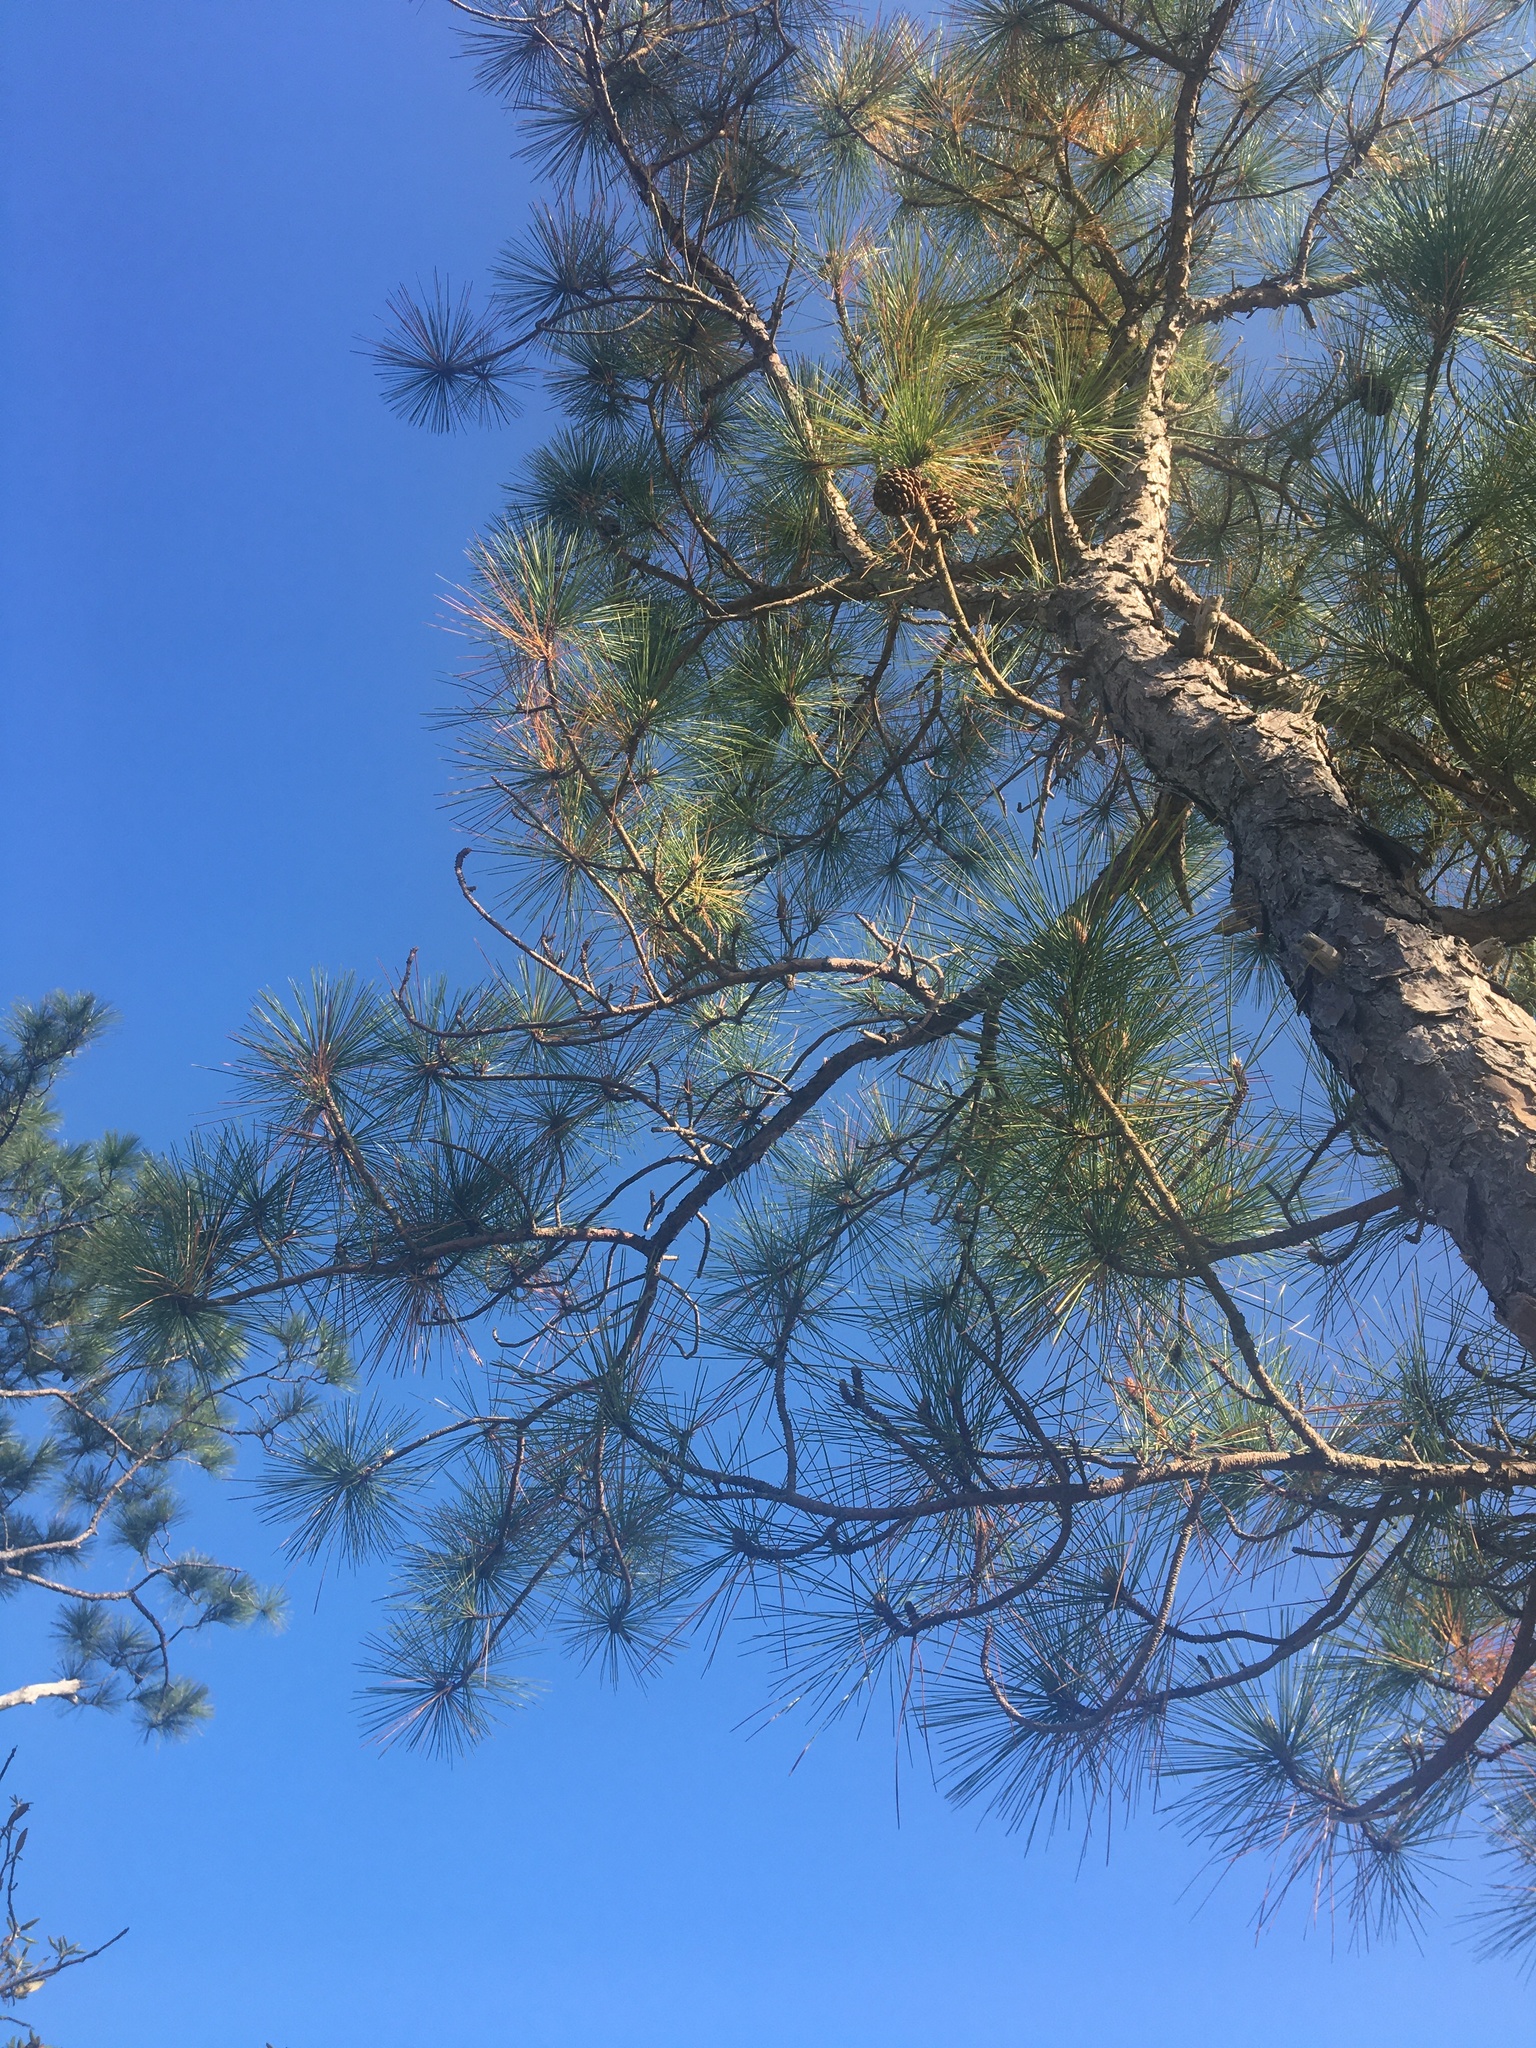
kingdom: Plantae
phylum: Tracheophyta
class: Pinopsida
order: Pinales
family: Pinaceae
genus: Pinus
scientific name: Pinus serotina
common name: Marsh pine
